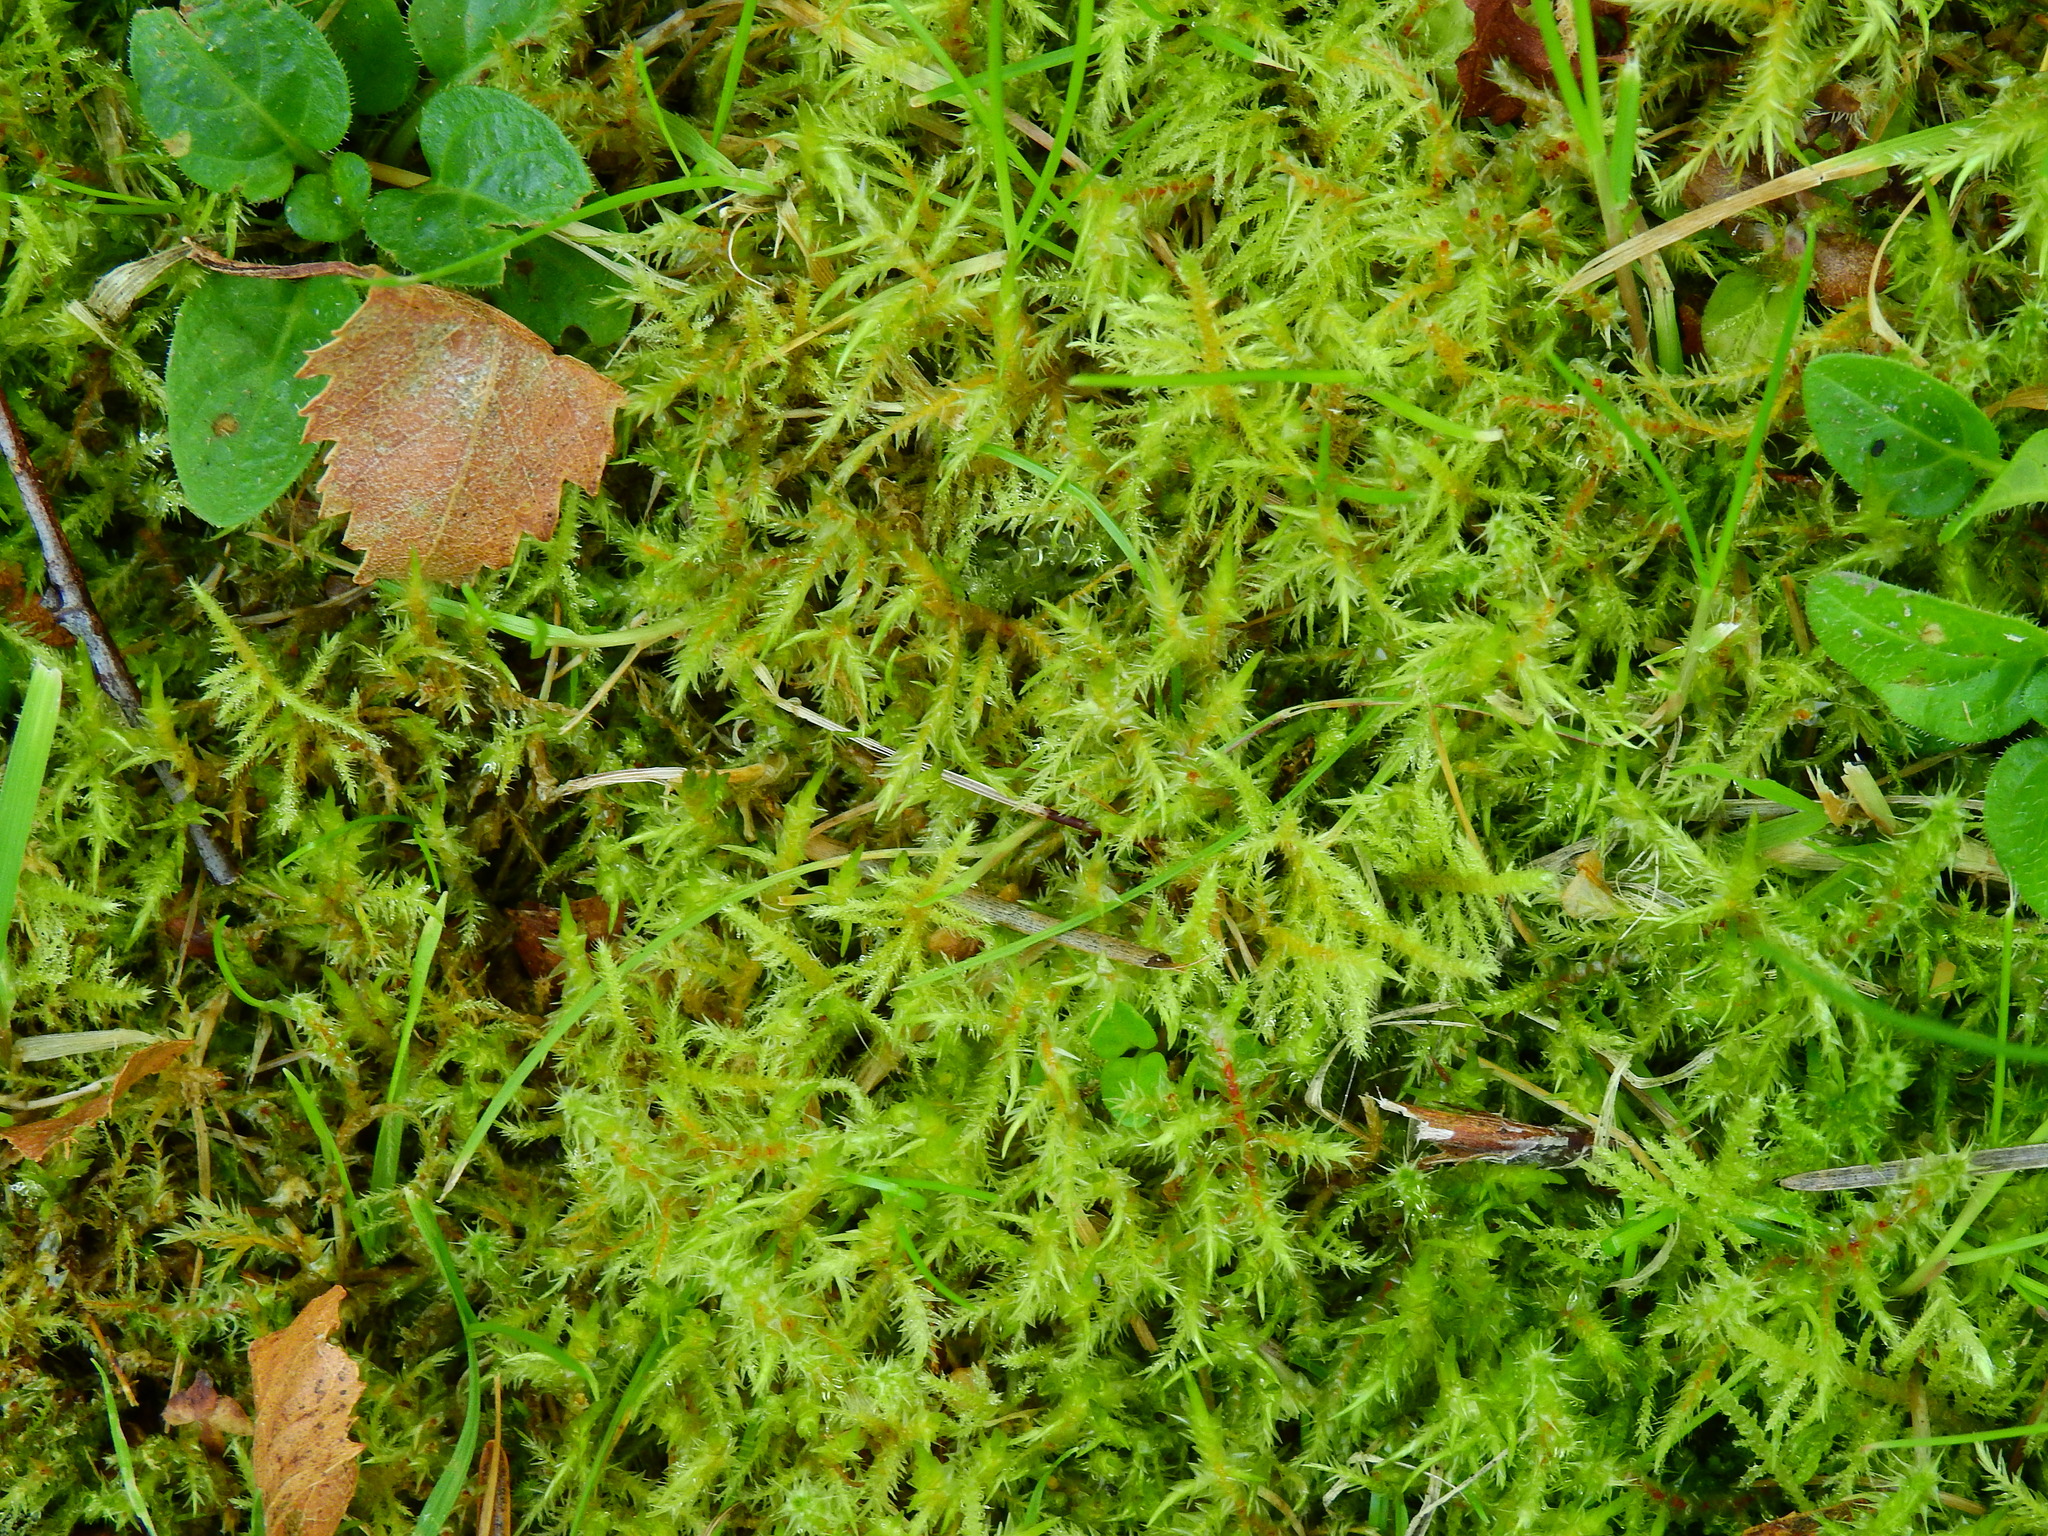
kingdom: Plantae
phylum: Bryophyta
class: Bryopsida
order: Hypnales
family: Pylaisiaceae
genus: Calliergonella
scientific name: Calliergonella cuspidata
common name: Common large wetland moss
